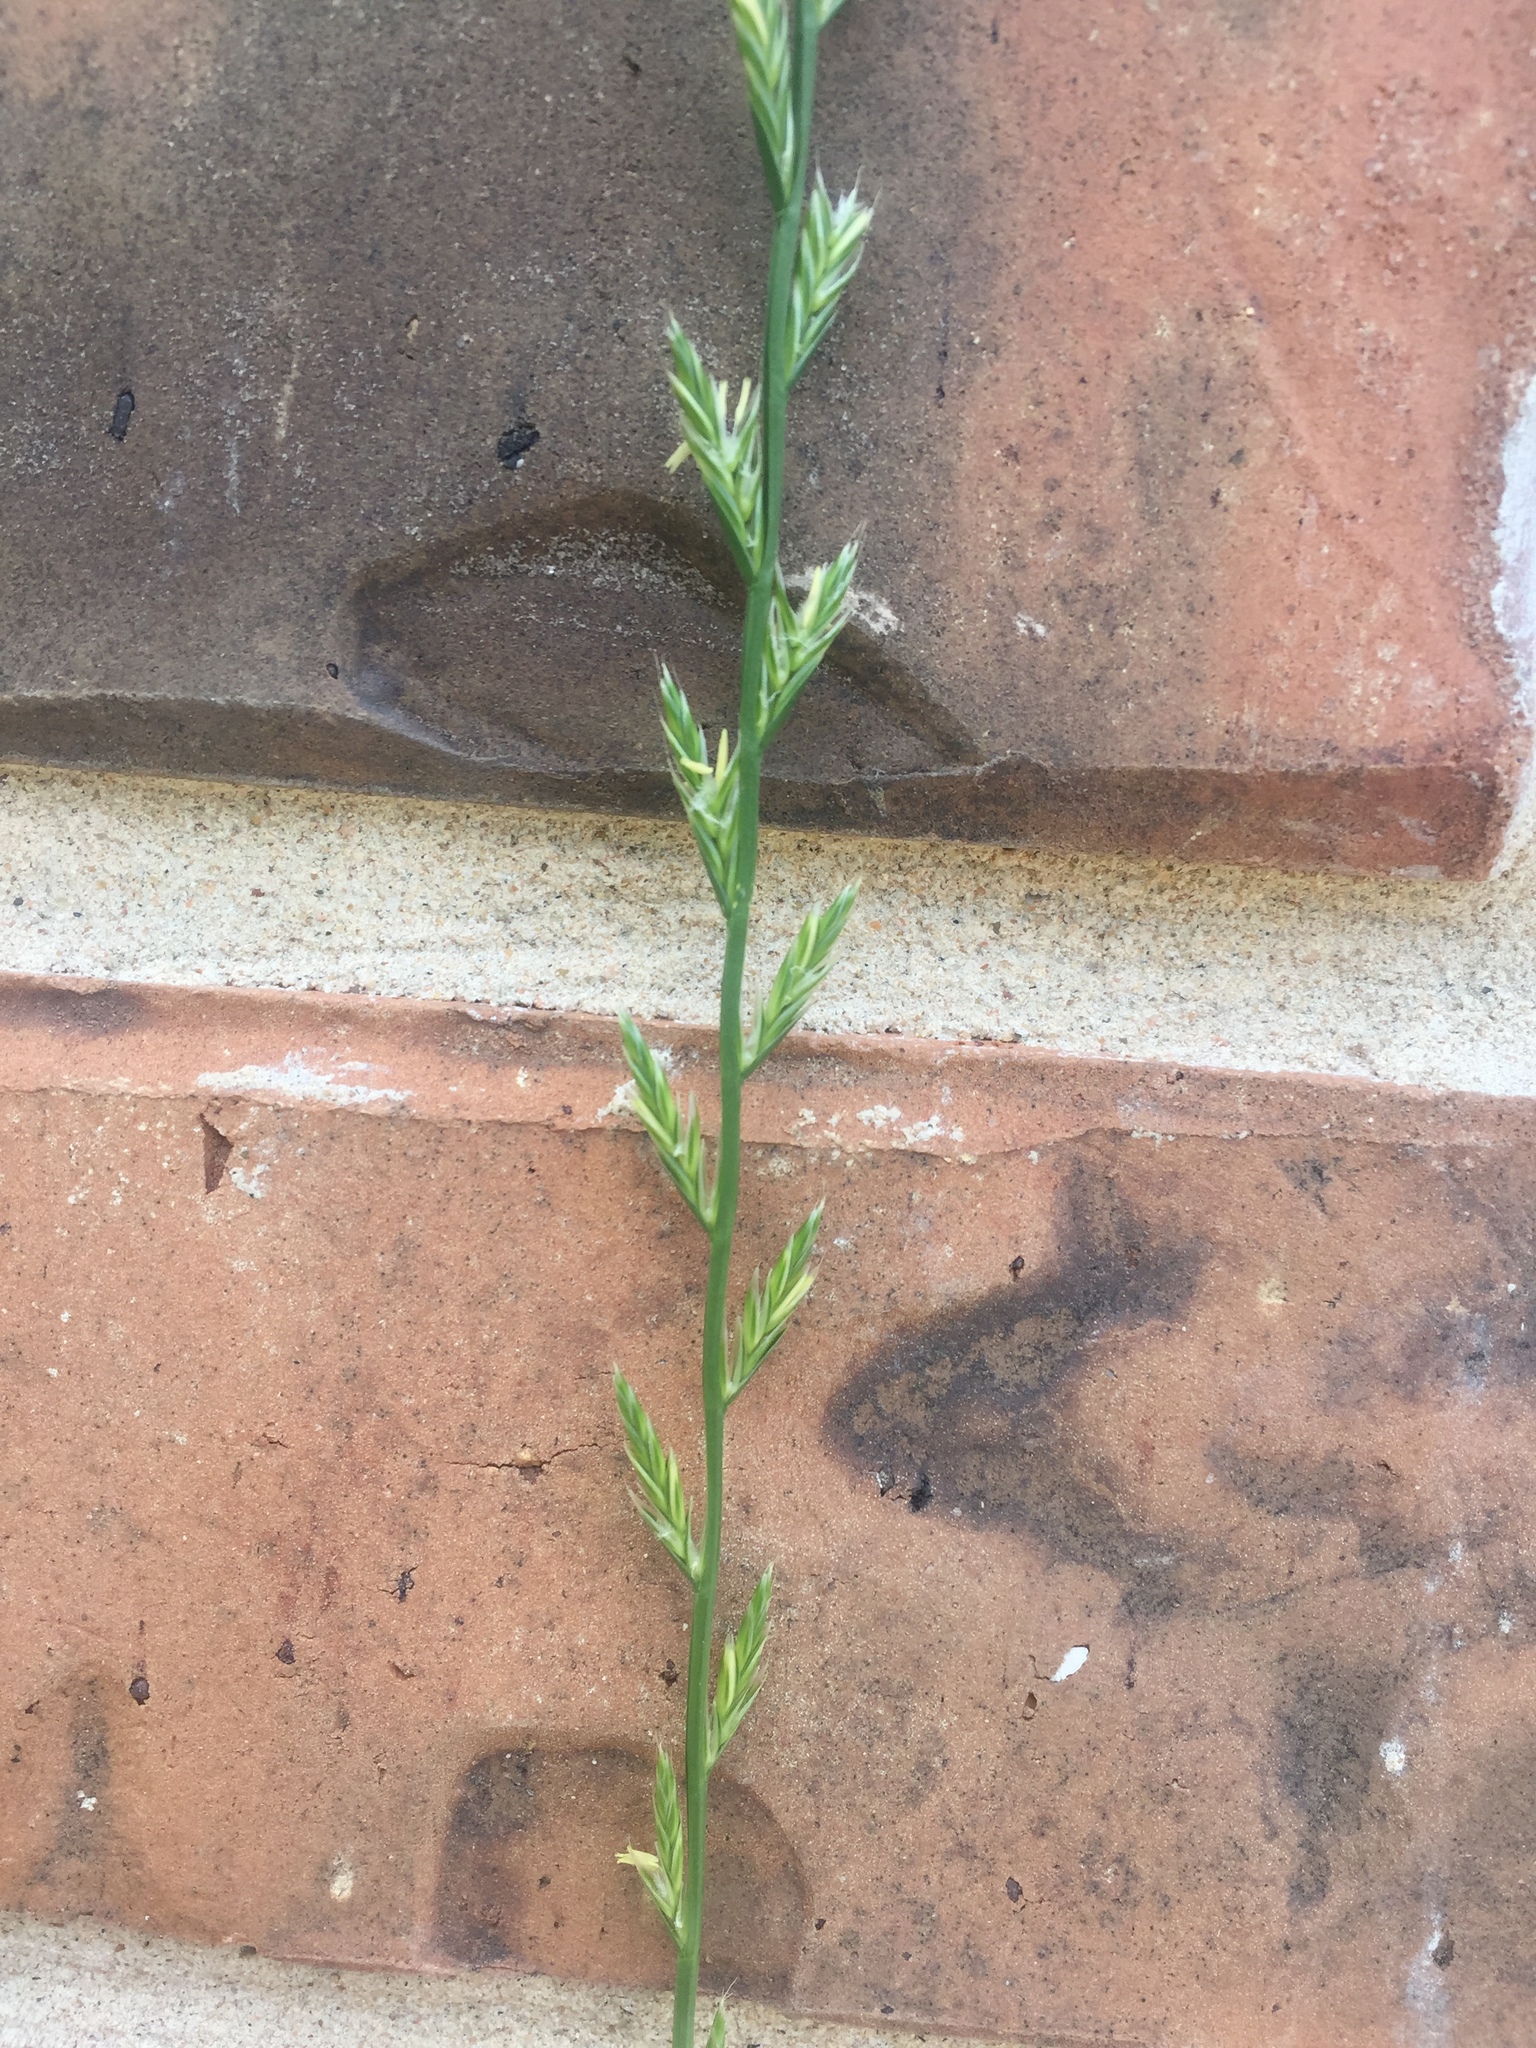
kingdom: Plantae
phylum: Tracheophyta
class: Liliopsida
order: Poales
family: Poaceae
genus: Lolium
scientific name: Lolium perenne
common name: Perennial ryegrass
